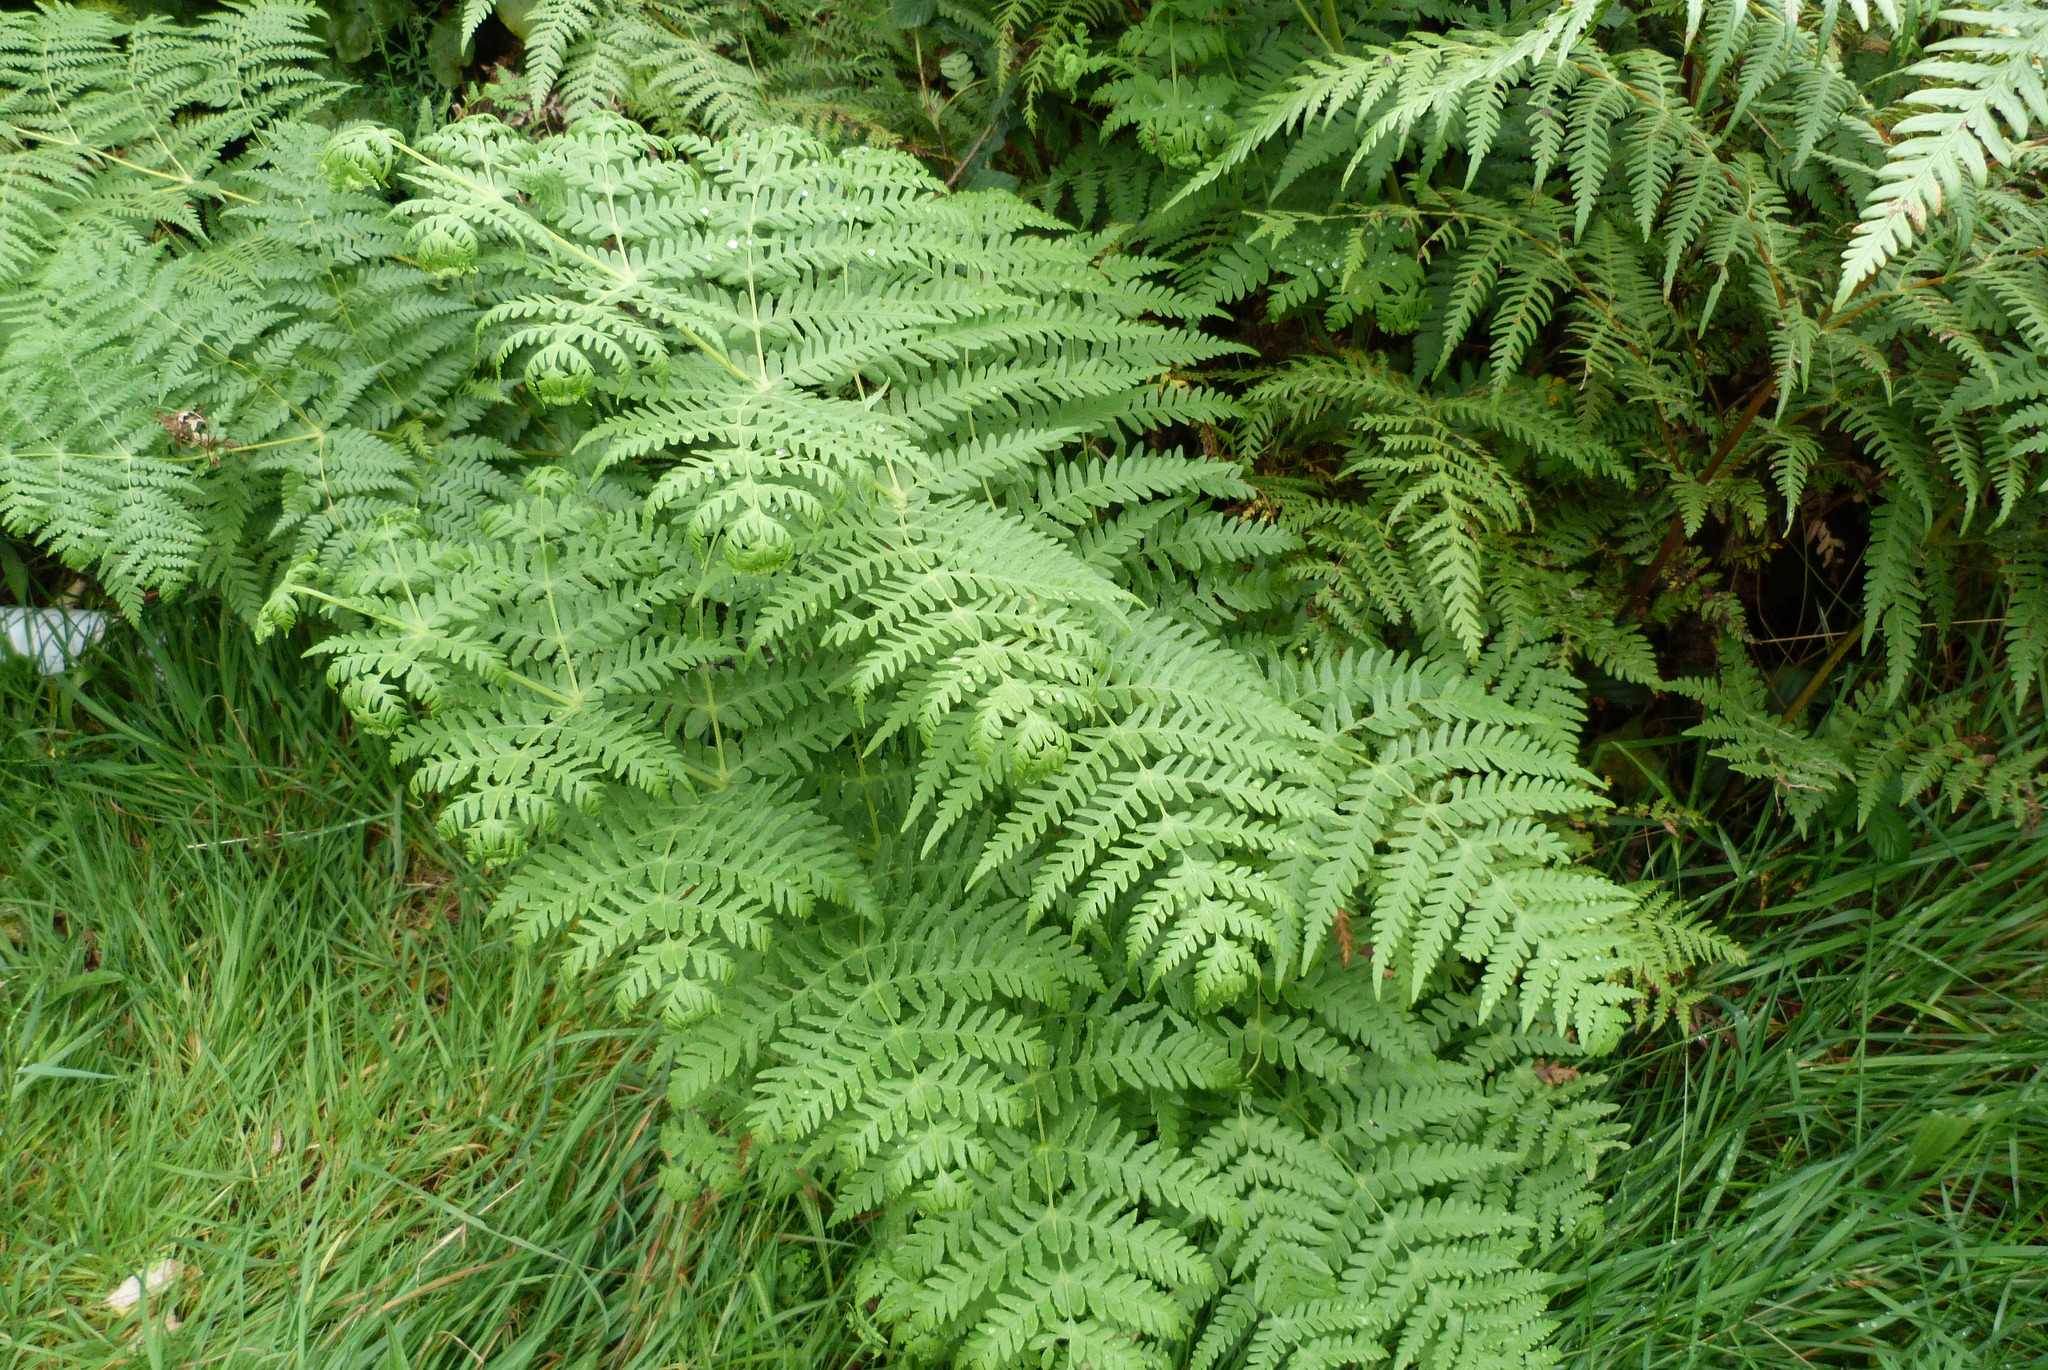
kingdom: Plantae
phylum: Tracheophyta
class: Polypodiopsida
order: Polypodiales
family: Dennstaedtiaceae
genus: Histiopteris
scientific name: Histiopteris incisa
